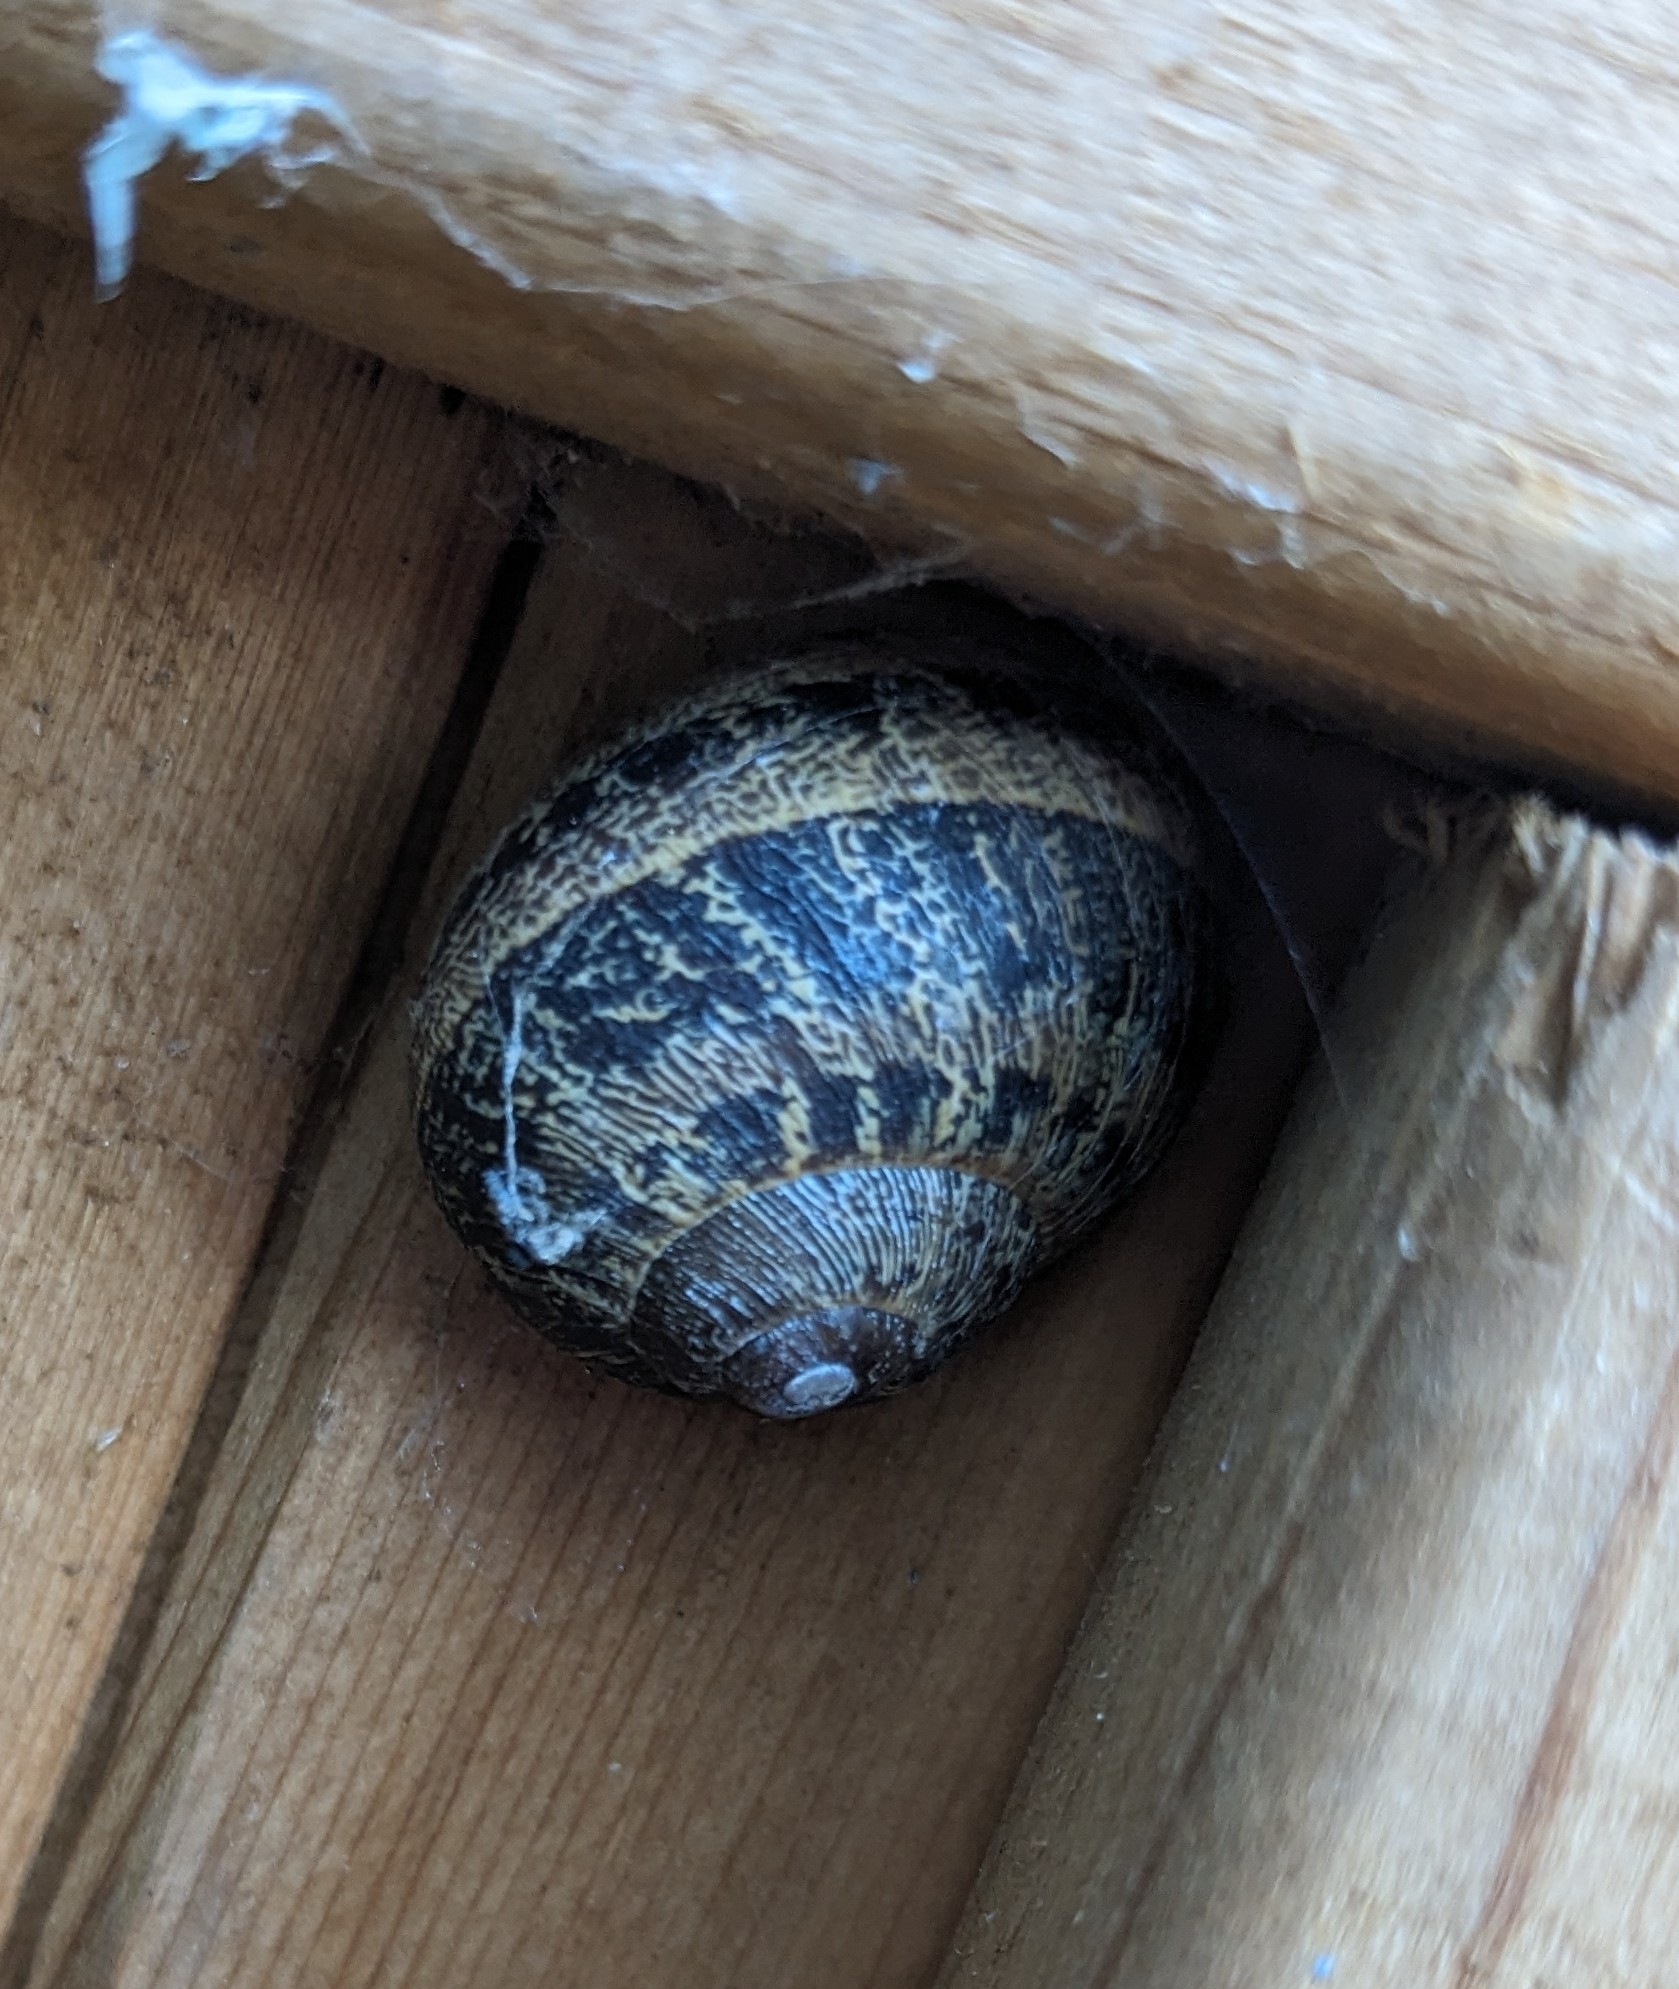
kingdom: Animalia
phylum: Mollusca
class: Gastropoda
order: Stylommatophora
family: Helicidae
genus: Cornu
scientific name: Cornu aspersum
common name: Brown garden snail
